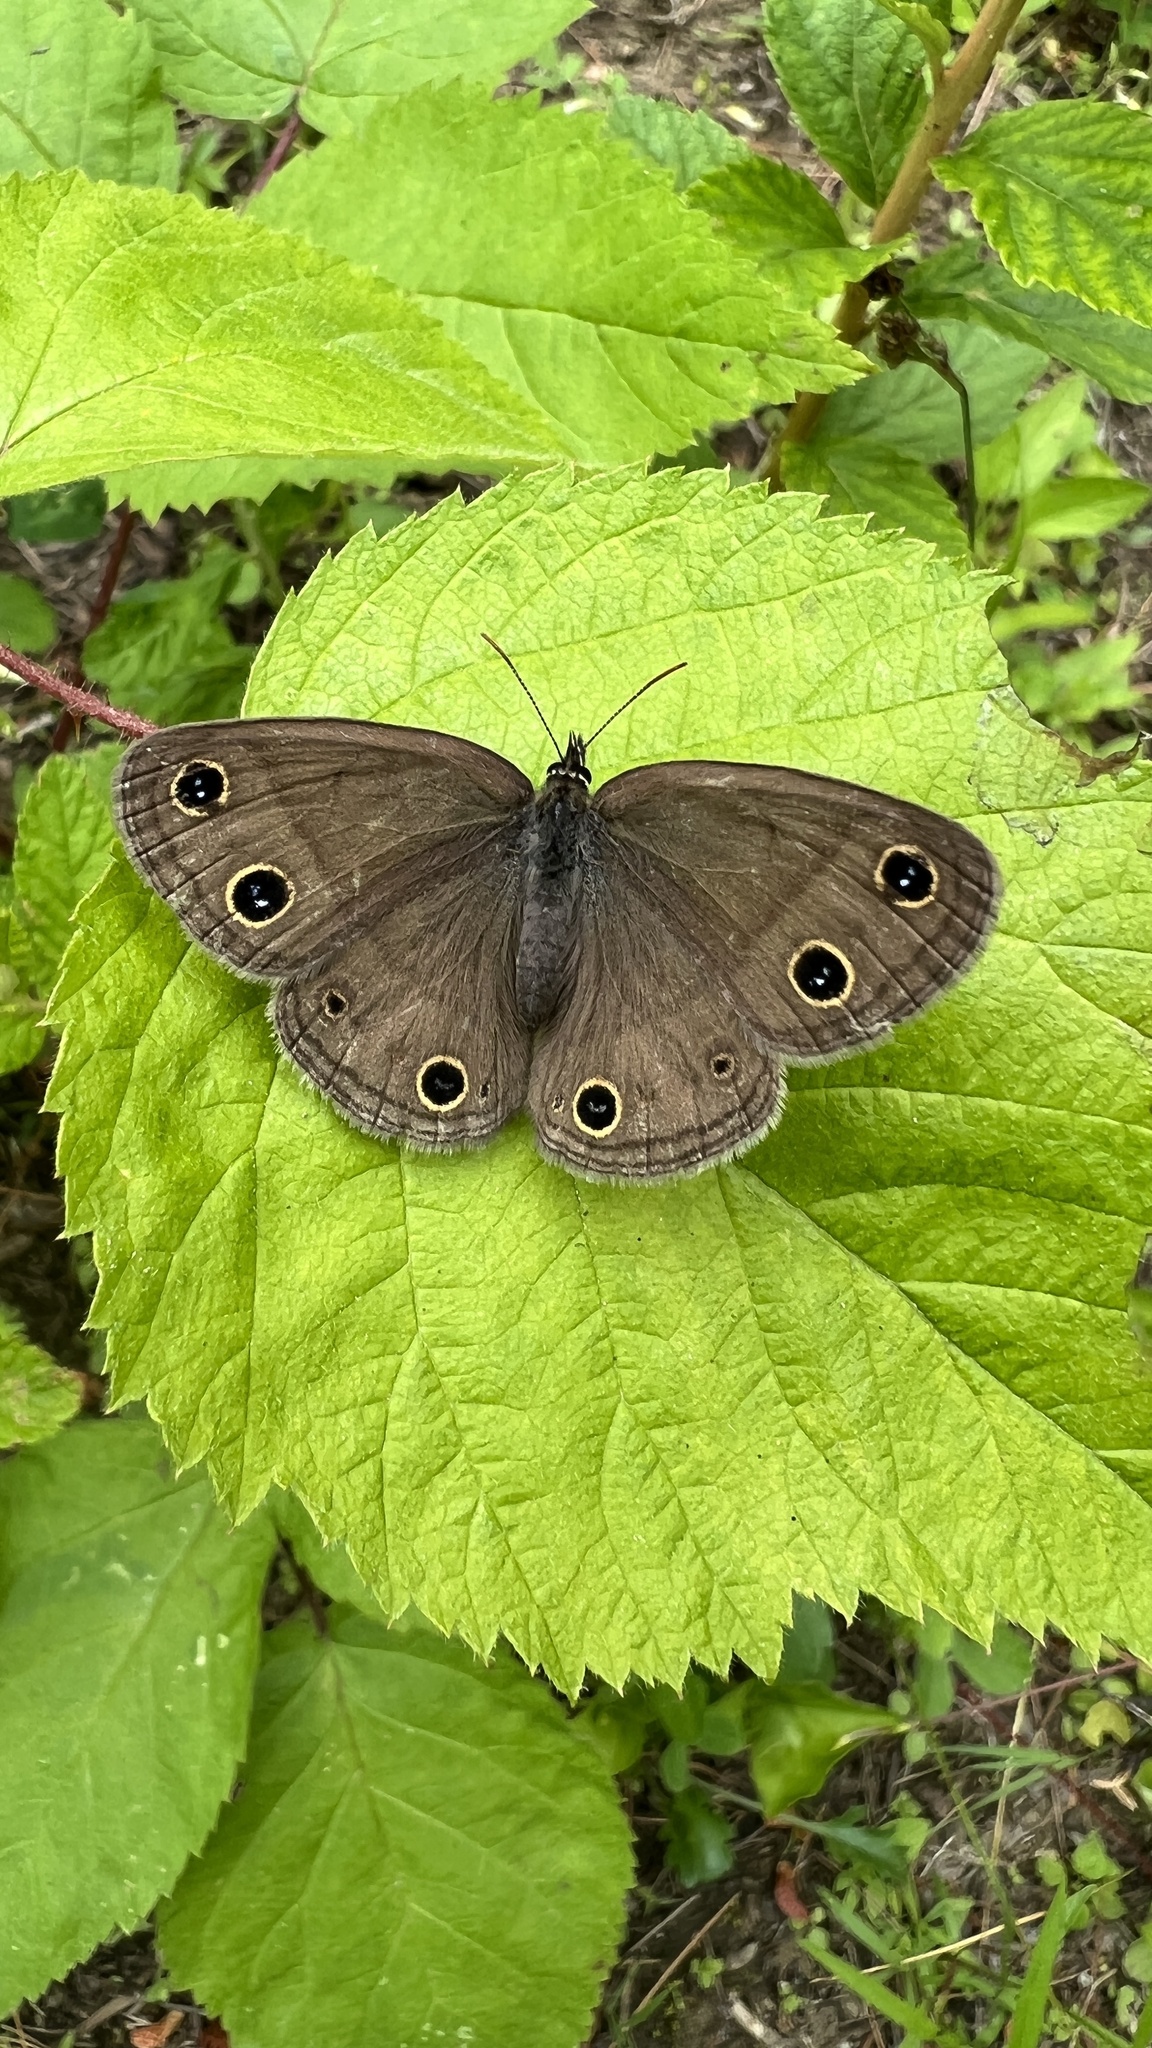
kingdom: Animalia
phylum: Arthropoda
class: Insecta
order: Lepidoptera
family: Nymphalidae
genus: Euptychia
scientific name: Euptychia cymela
